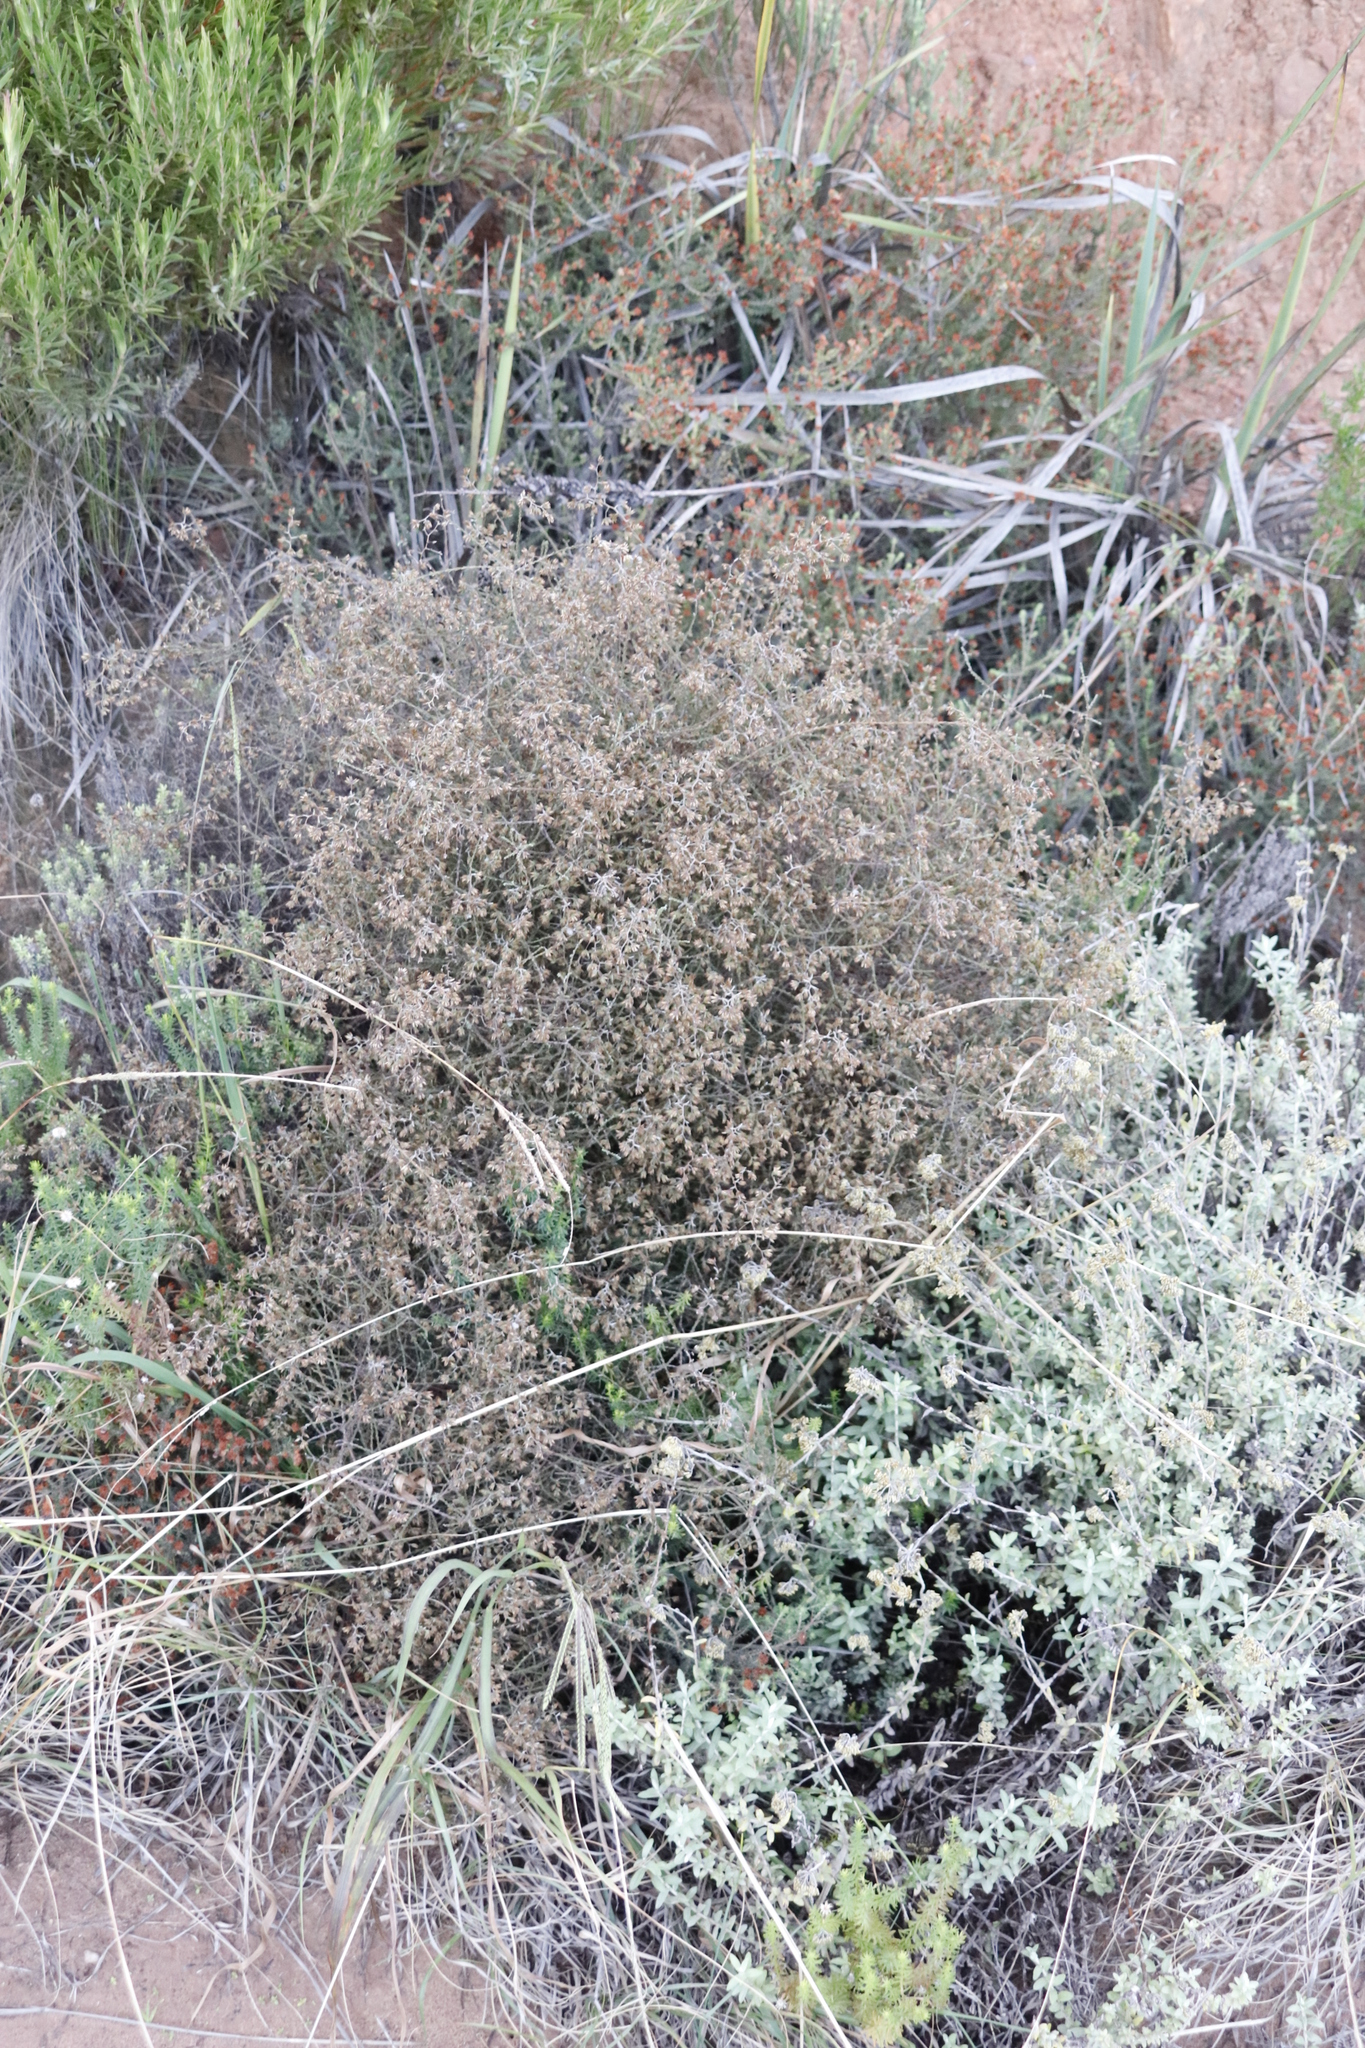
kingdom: Plantae
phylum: Tracheophyta
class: Magnoliopsida
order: Asterales
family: Asteraceae
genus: Myrovernix
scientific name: Myrovernix scaber
